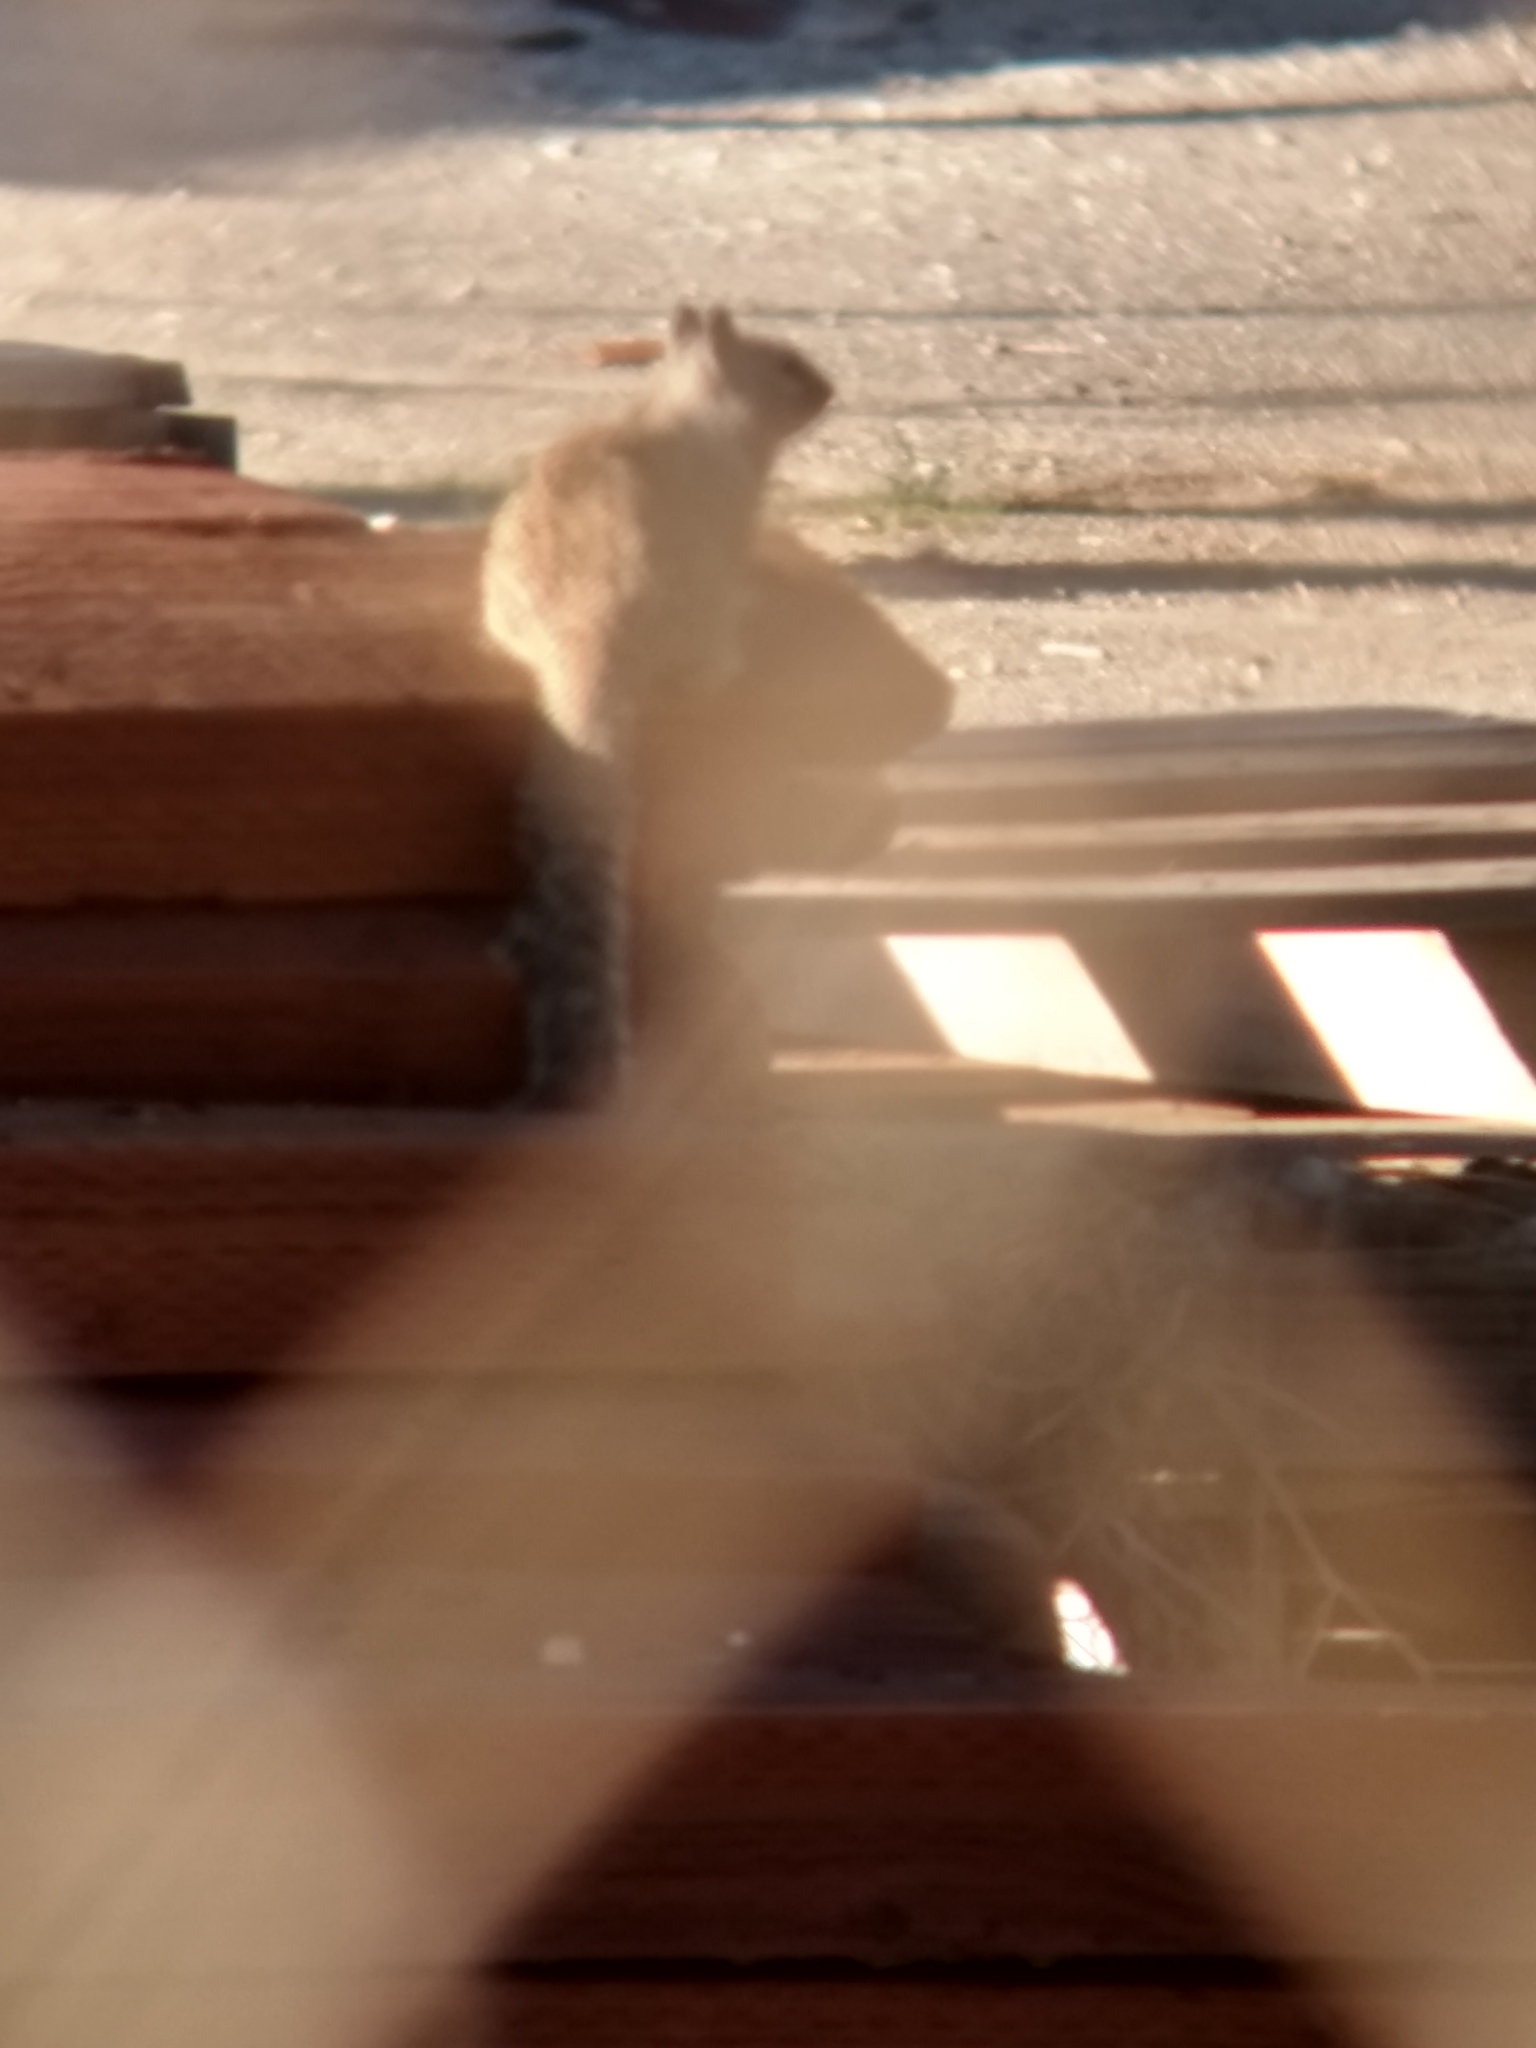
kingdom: Animalia
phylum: Chordata
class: Mammalia
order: Rodentia
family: Sciuridae
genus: Otospermophilus
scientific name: Otospermophilus beecheyi
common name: California ground squirrel
